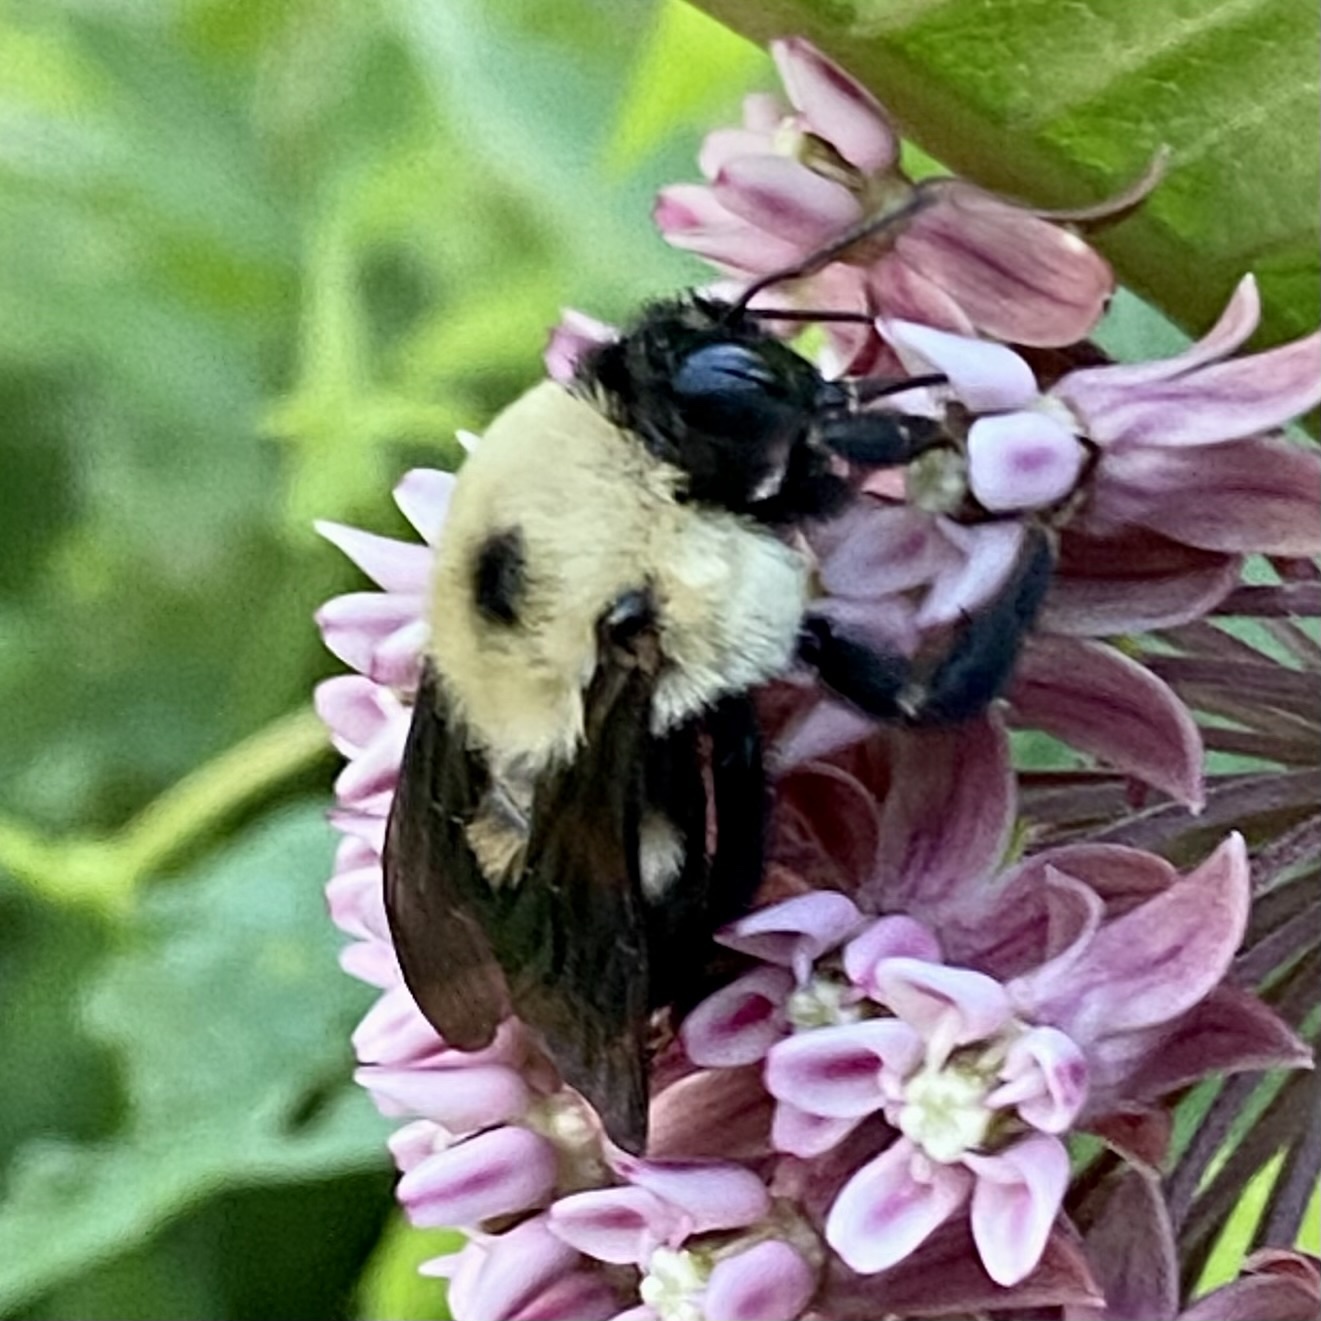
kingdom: Animalia
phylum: Arthropoda
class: Insecta
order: Hymenoptera
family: Apidae
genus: Xylocopa
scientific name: Xylocopa virginica
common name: Carpenter bee
